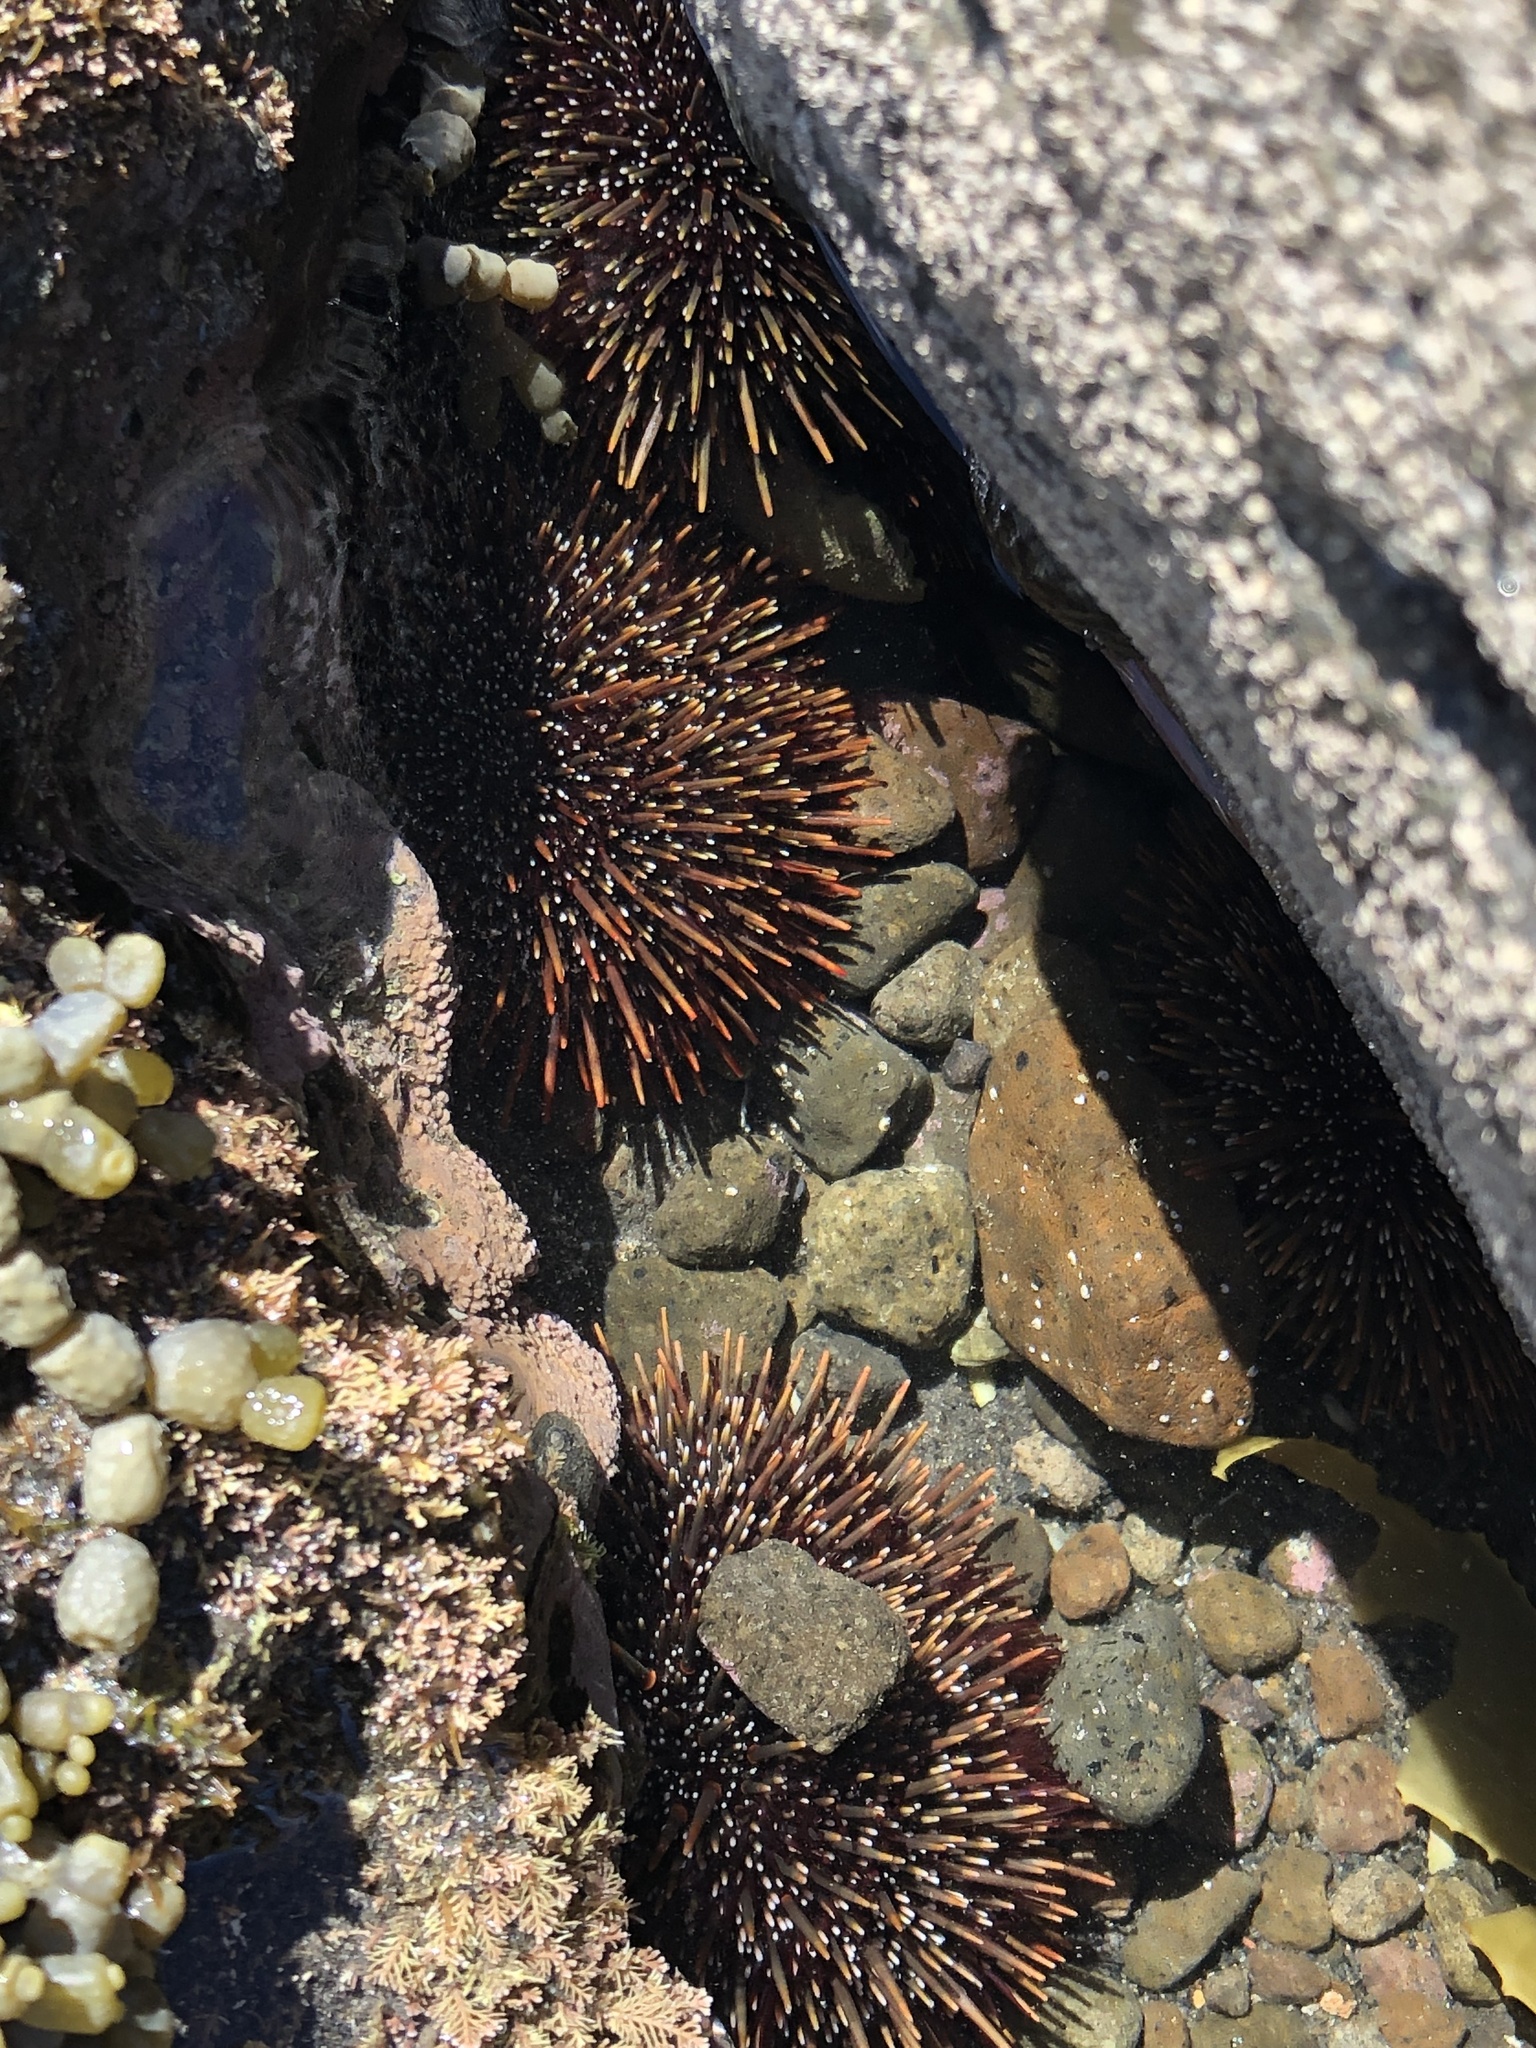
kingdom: Animalia
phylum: Echinodermata
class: Echinoidea
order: Camarodonta
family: Echinometridae
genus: Evechinus
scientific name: Evechinus chloroticus
